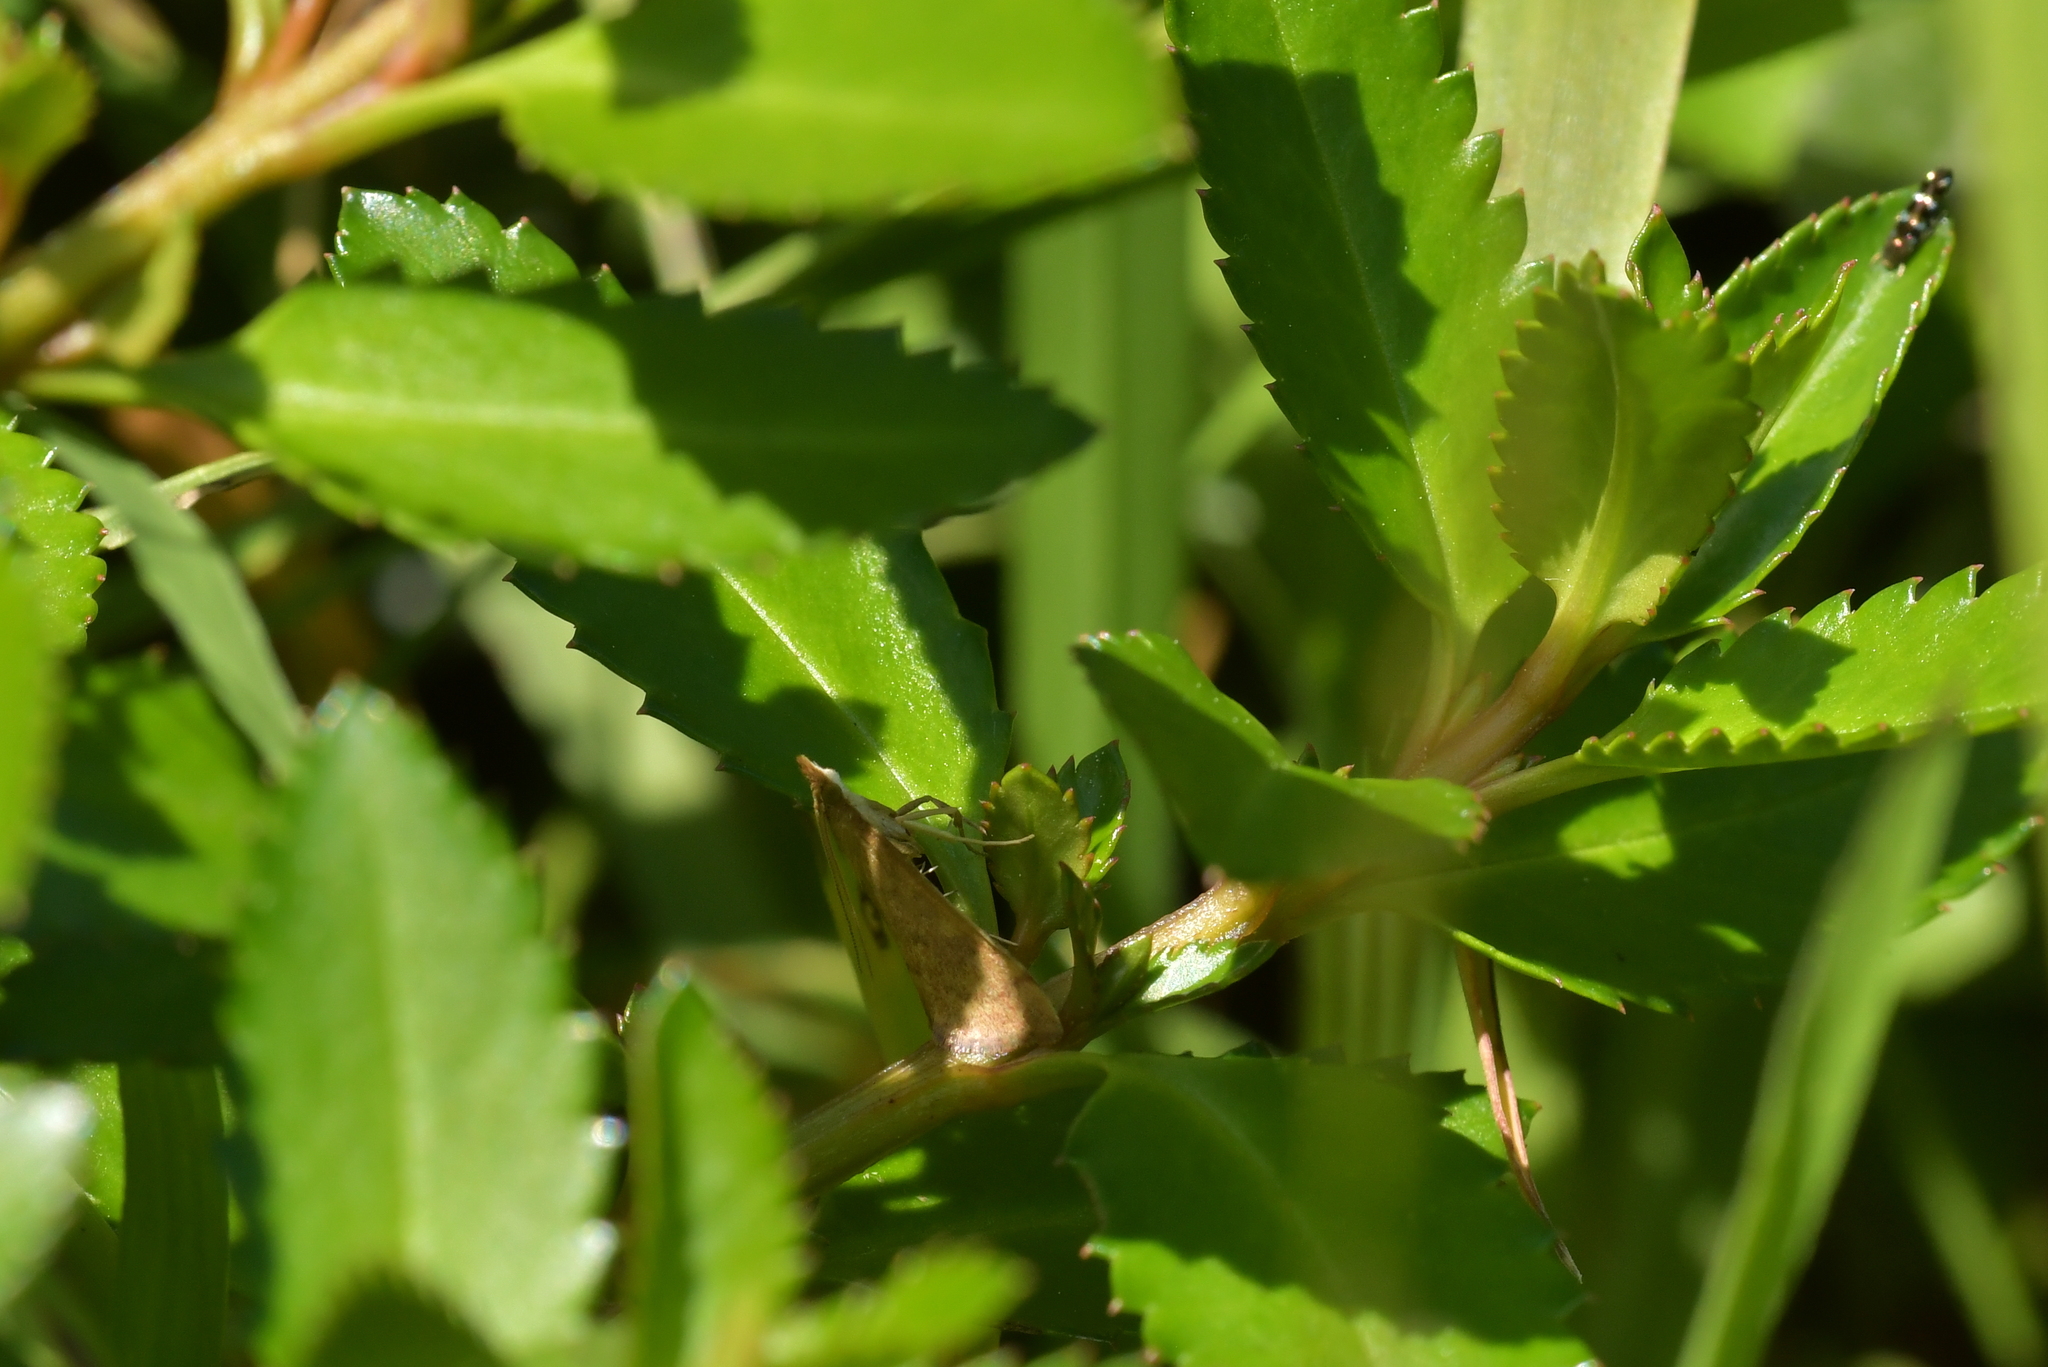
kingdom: Animalia
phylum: Arthropoda
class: Insecta
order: Lepidoptera
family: Crambidae
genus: Udea
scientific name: Udea Mnesictena flavidalis
